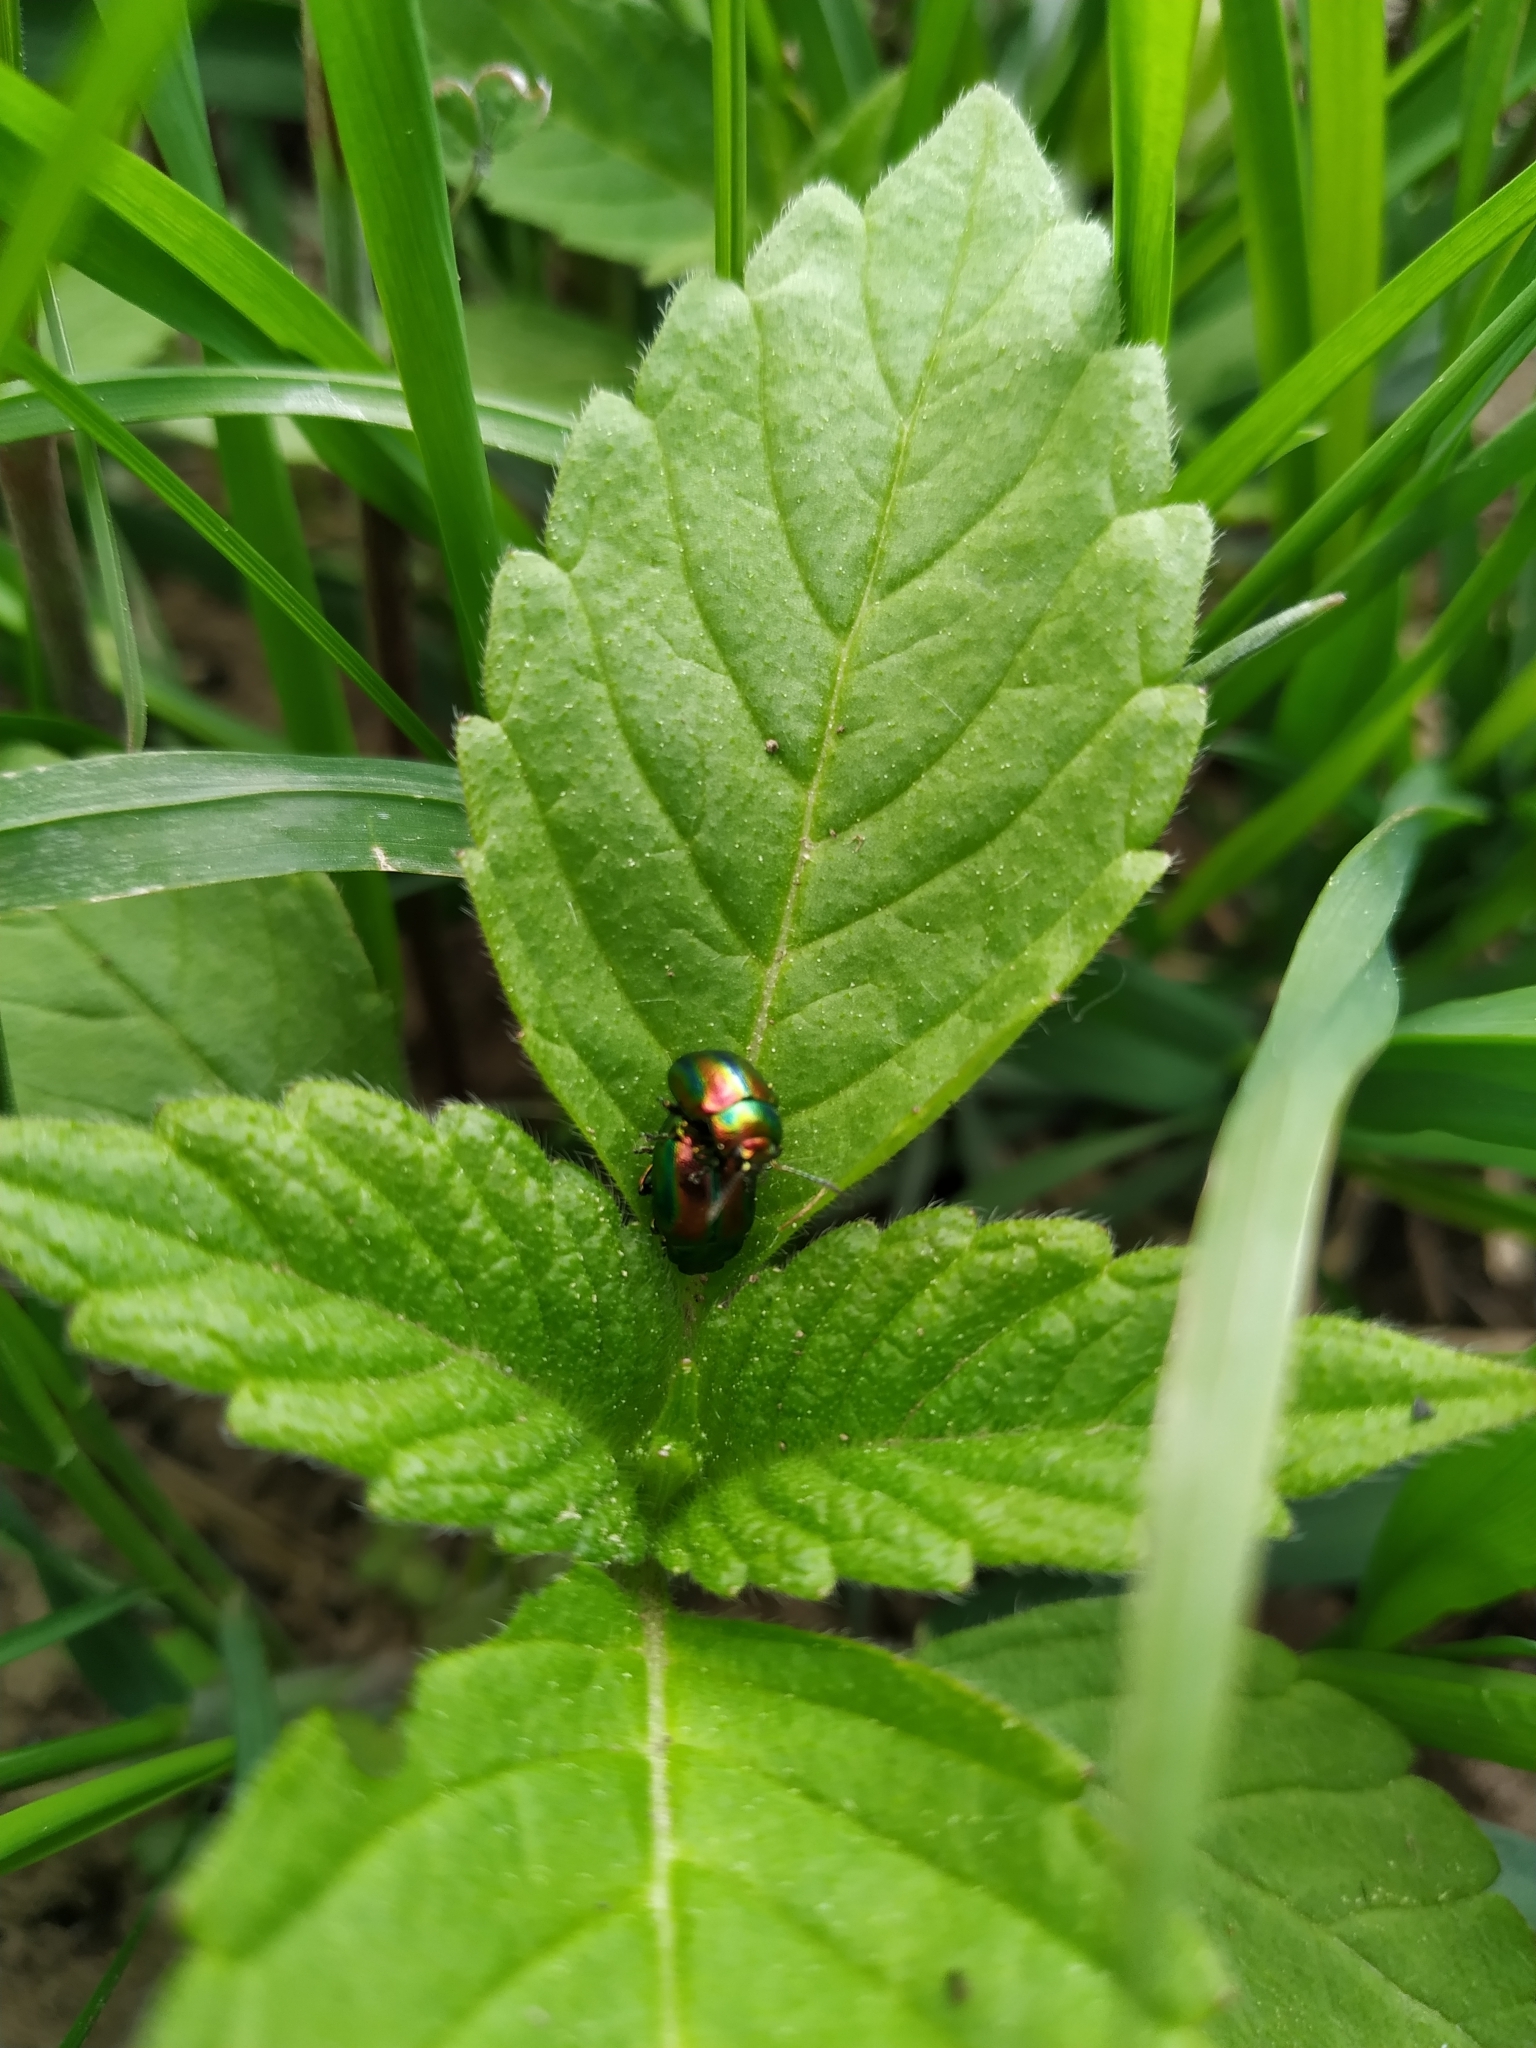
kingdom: Animalia
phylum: Arthropoda
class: Insecta
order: Coleoptera
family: Chrysomelidae
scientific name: Chrysomelidae
